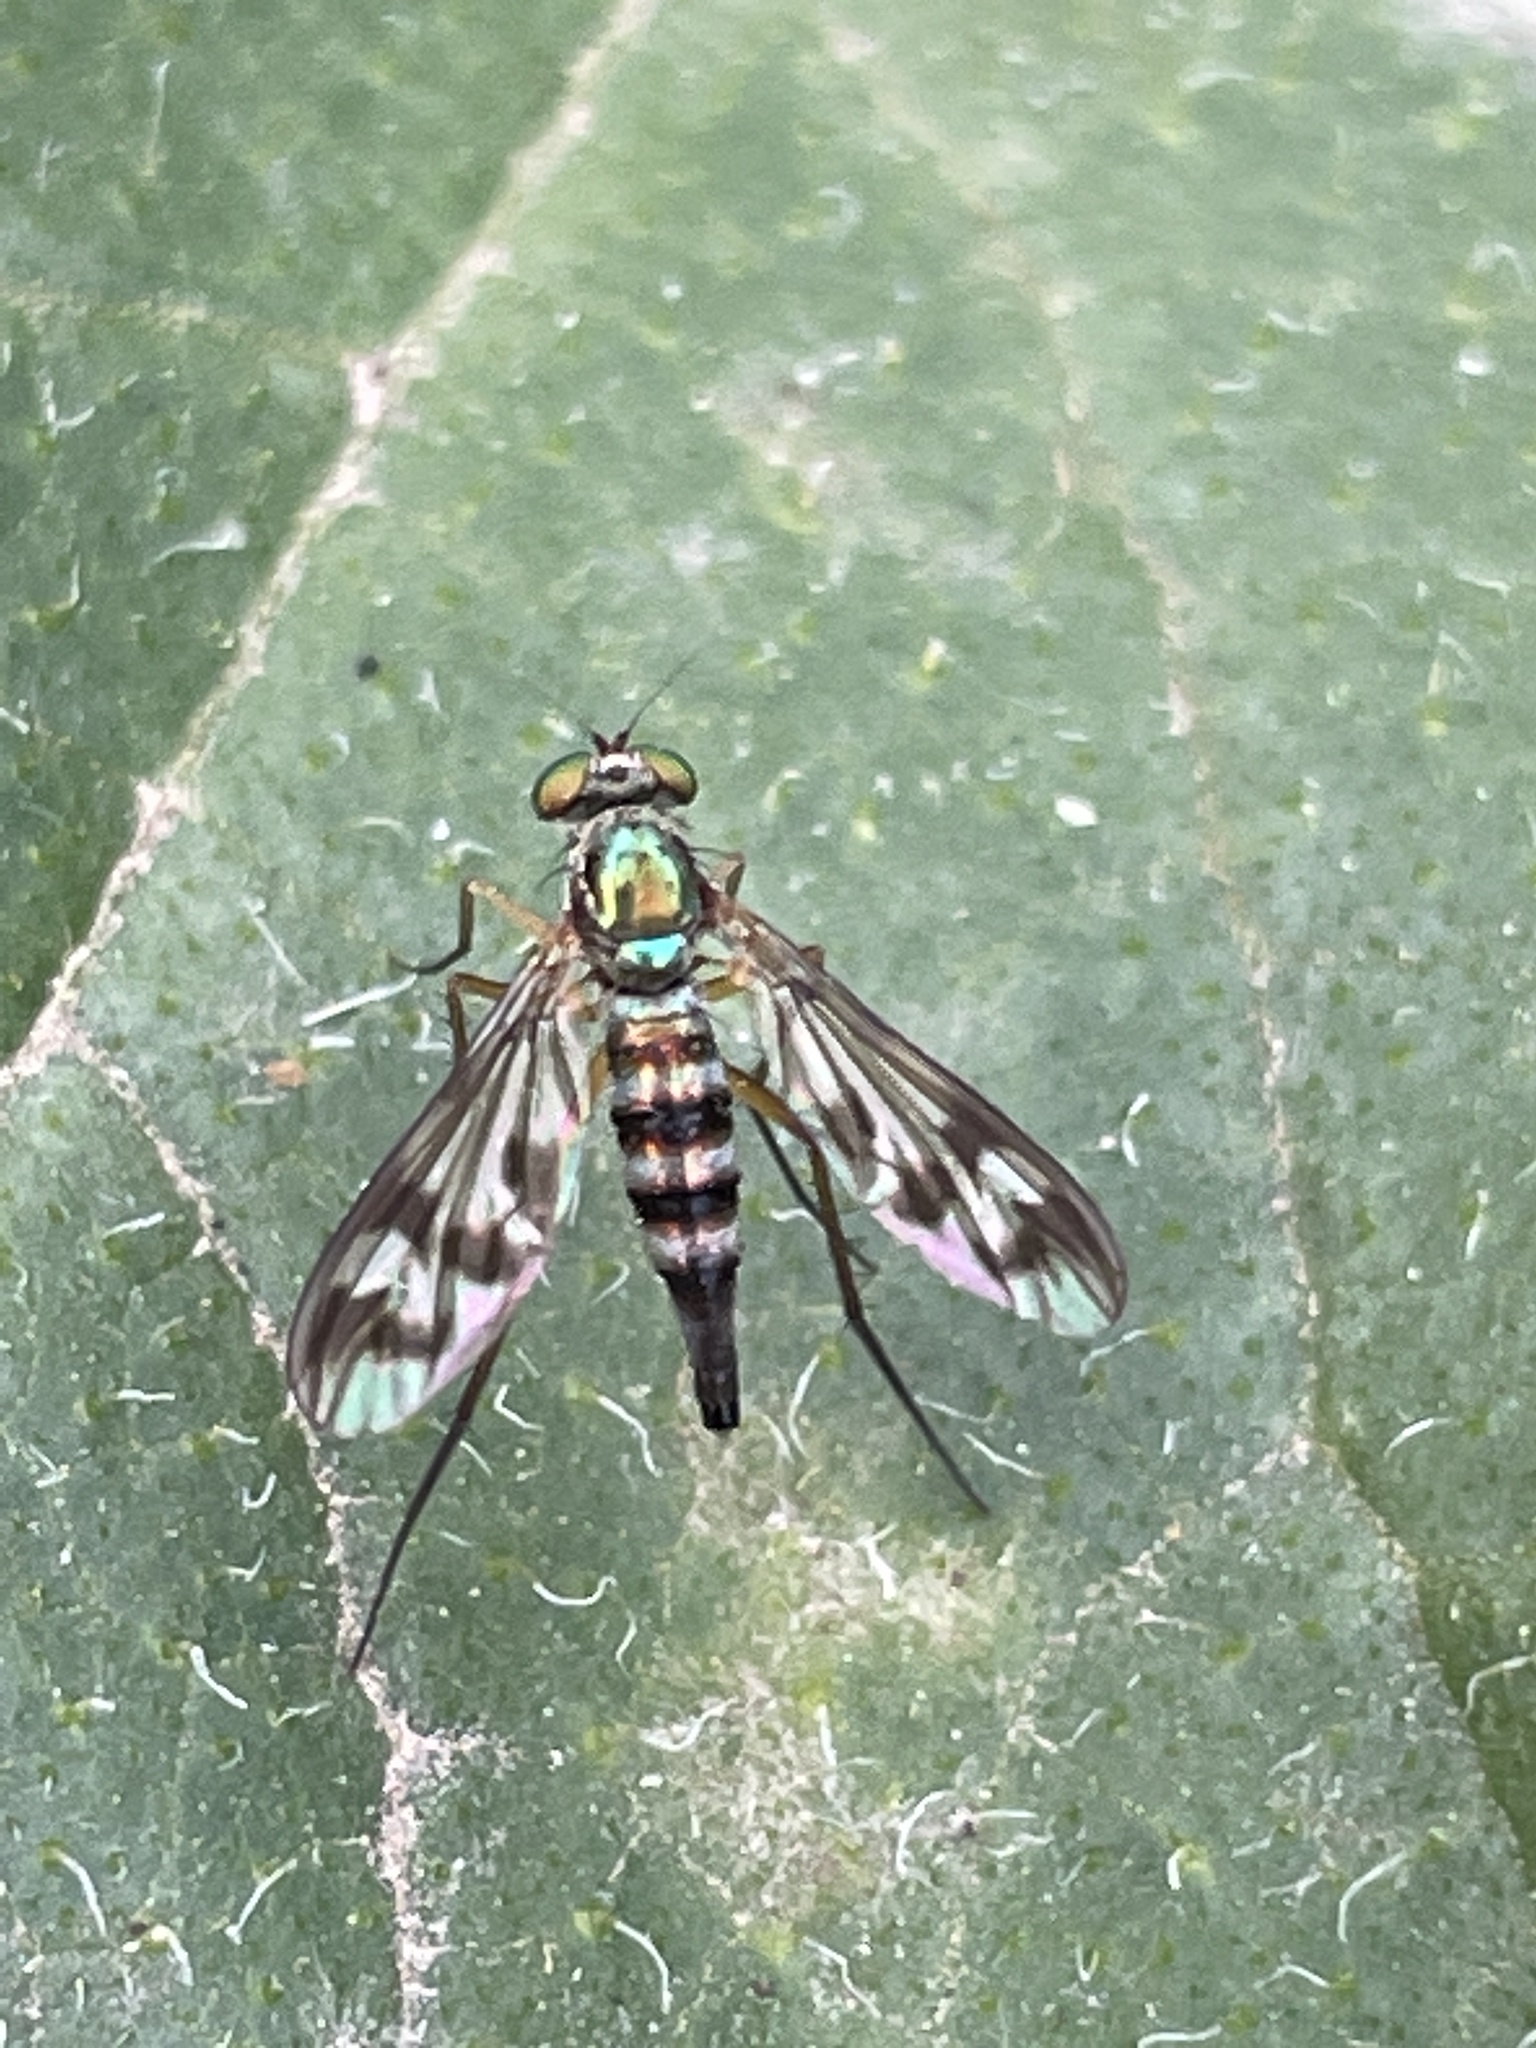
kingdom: Animalia
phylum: Arthropoda
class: Insecta
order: Diptera
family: Dolichopodidae
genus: Heteropsilopus
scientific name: Heteropsilopus
